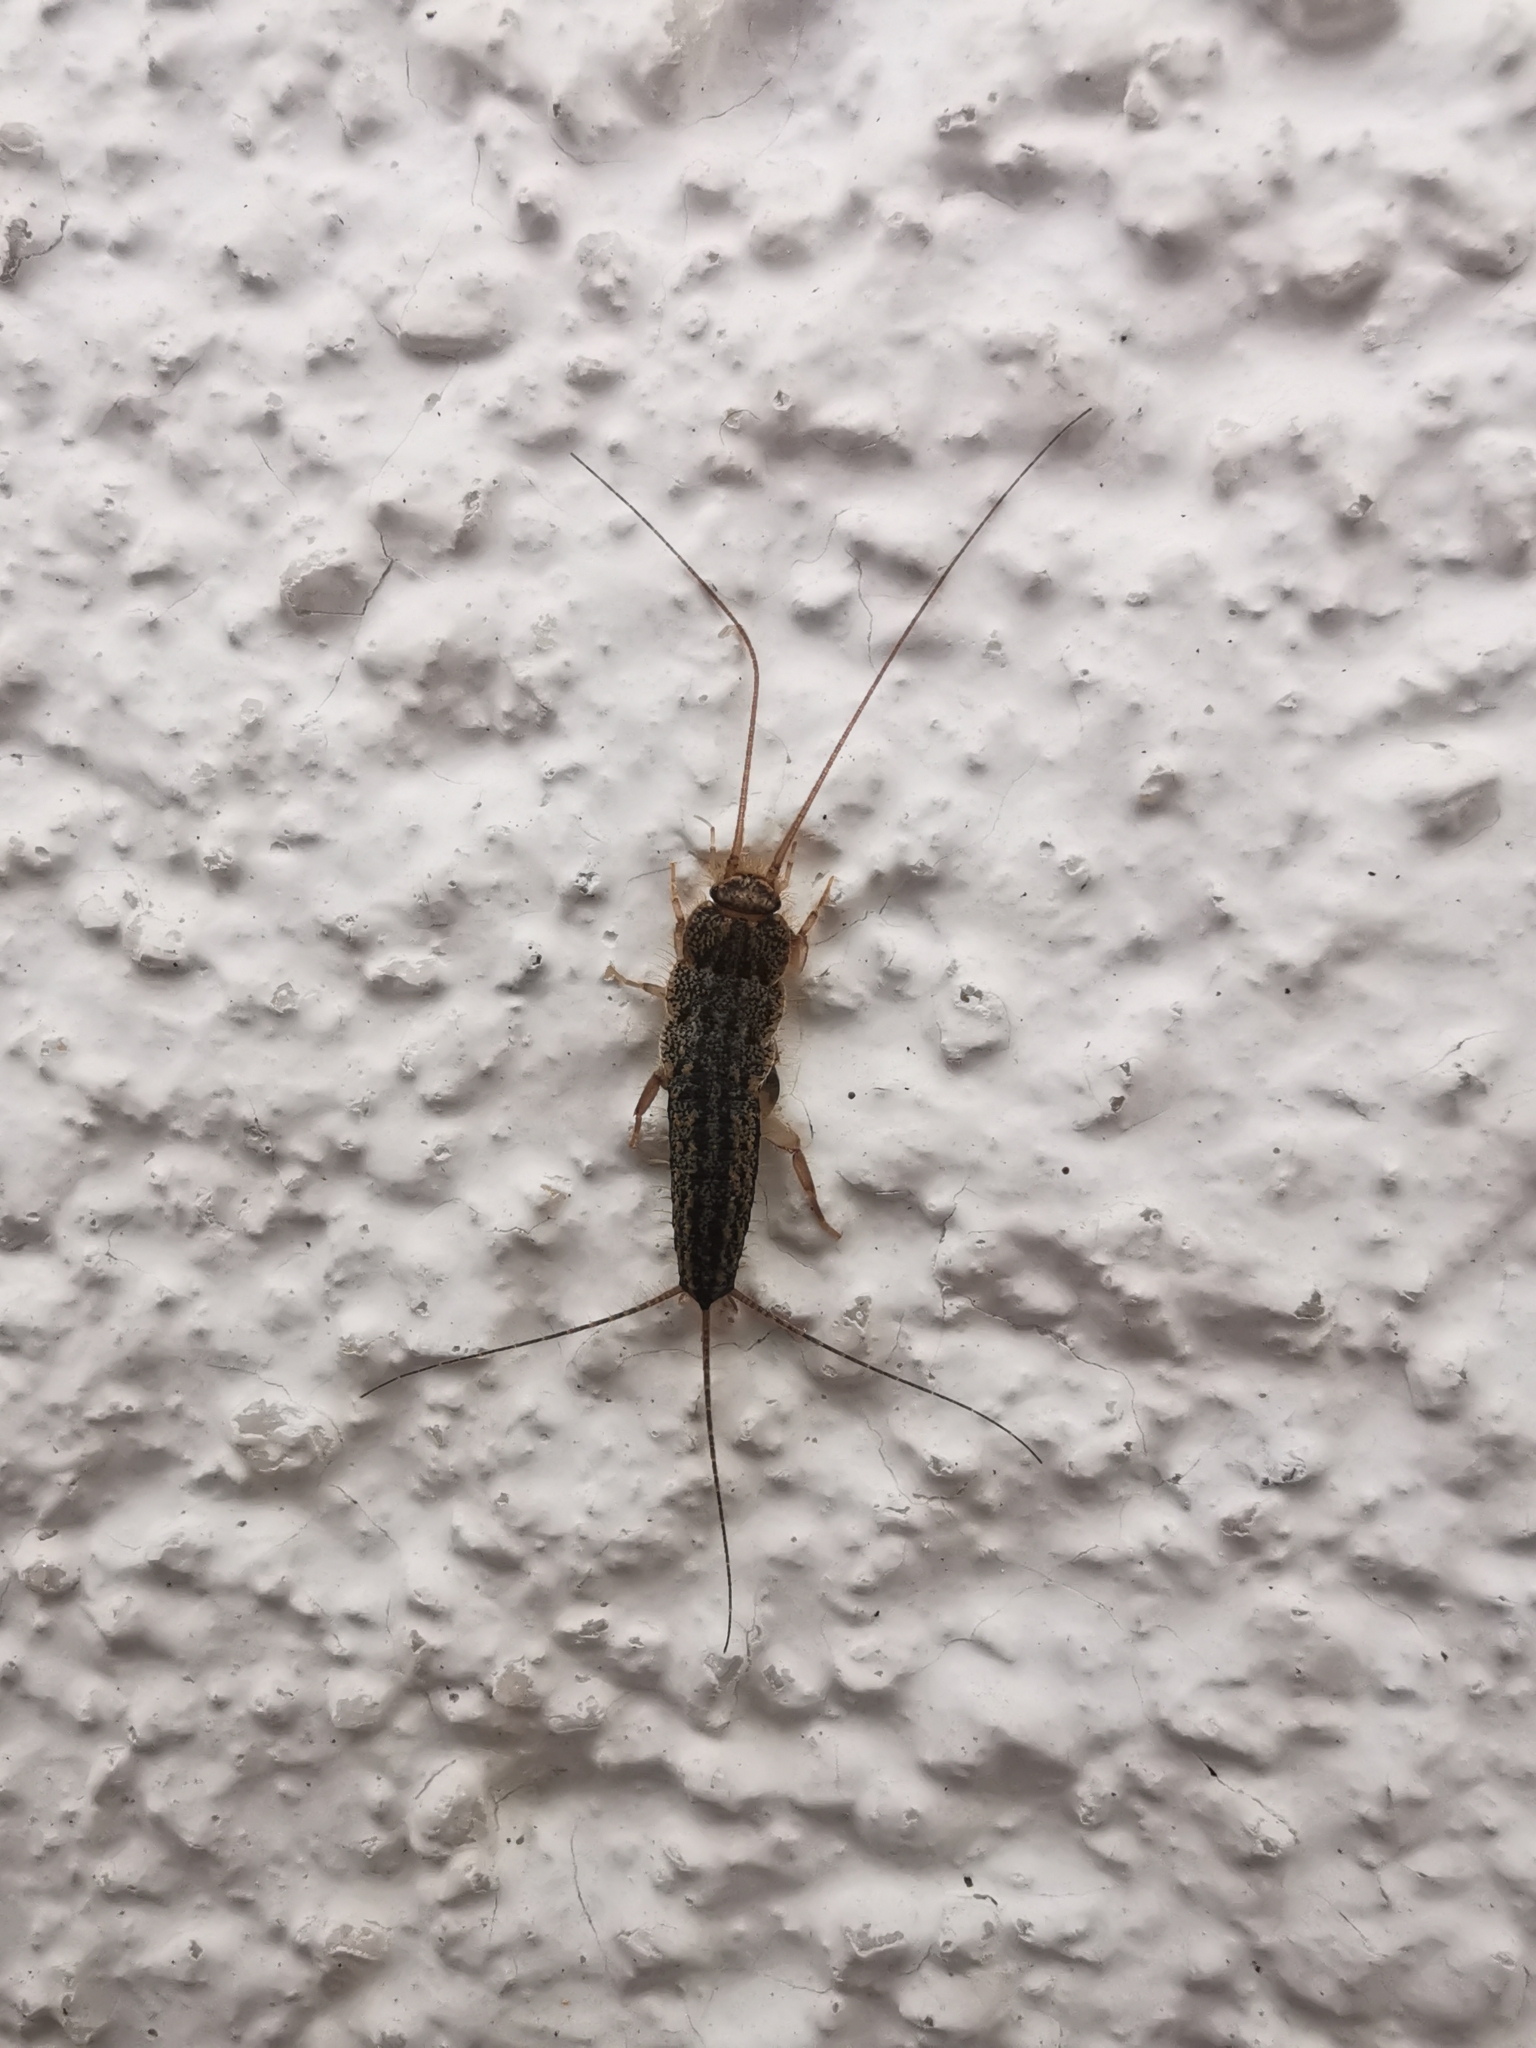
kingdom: Animalia
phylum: Arthropoda
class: Insecta
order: Zygentoma
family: Lepismatidae
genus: Ctenolepisma
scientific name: Ctenolepisma lineata
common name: Four-lined silverfish
